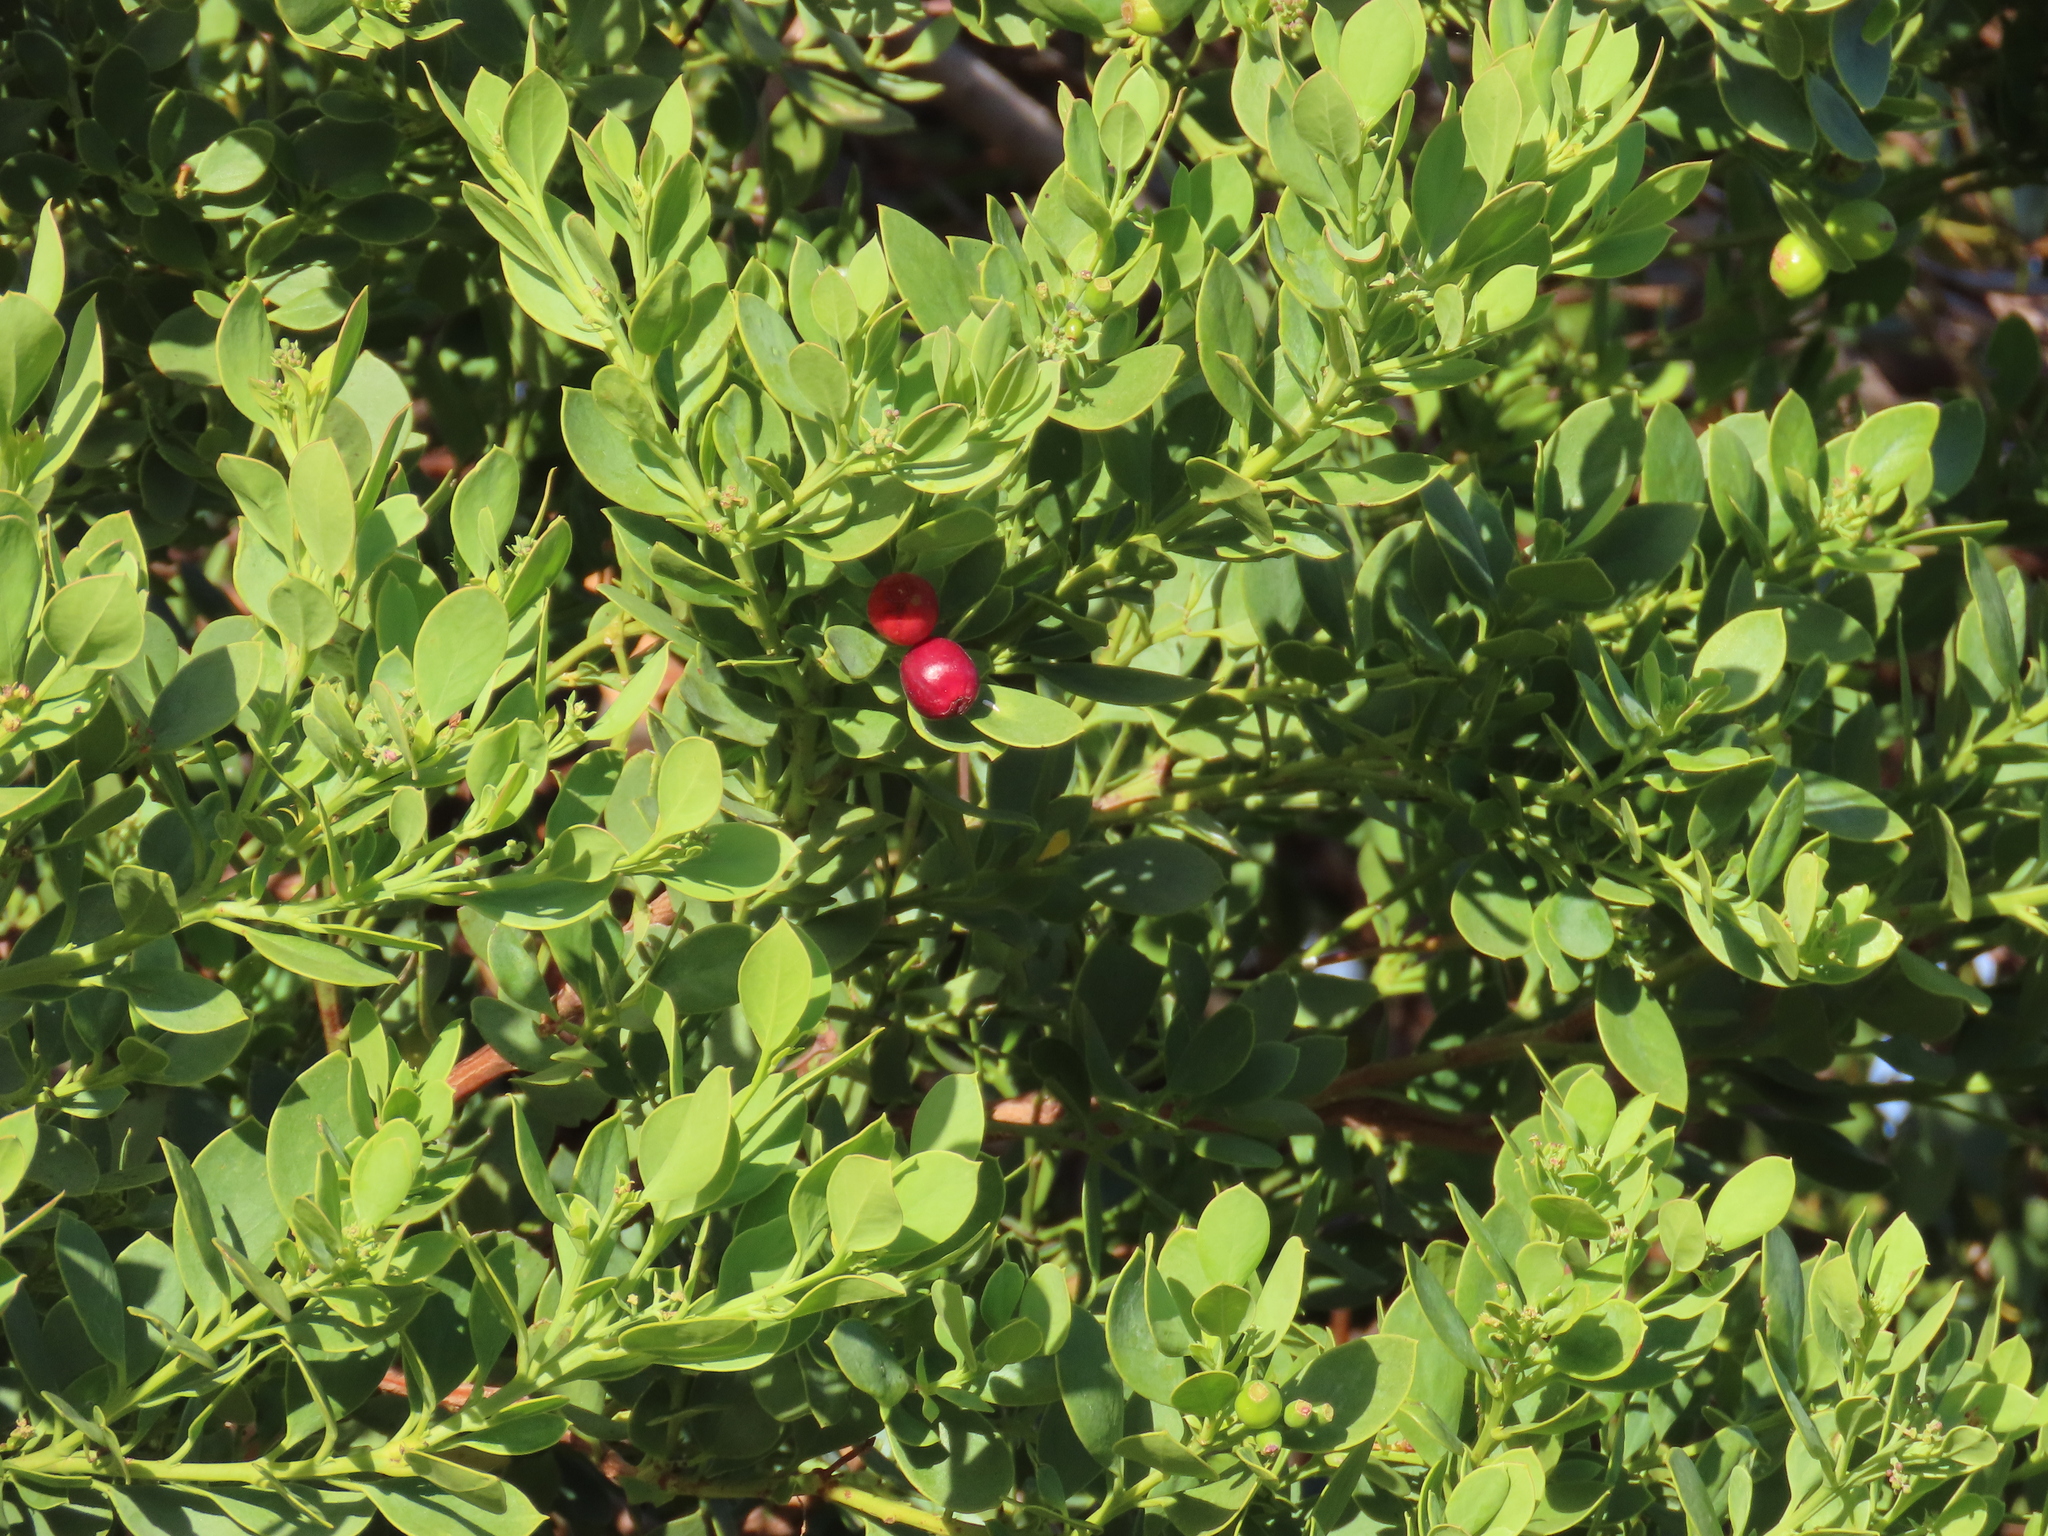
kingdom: Plantae
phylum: Tracheophyta
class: Magnoliopsida
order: Santalales
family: Santalaceae
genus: Osyris
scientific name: Osyris compressa
